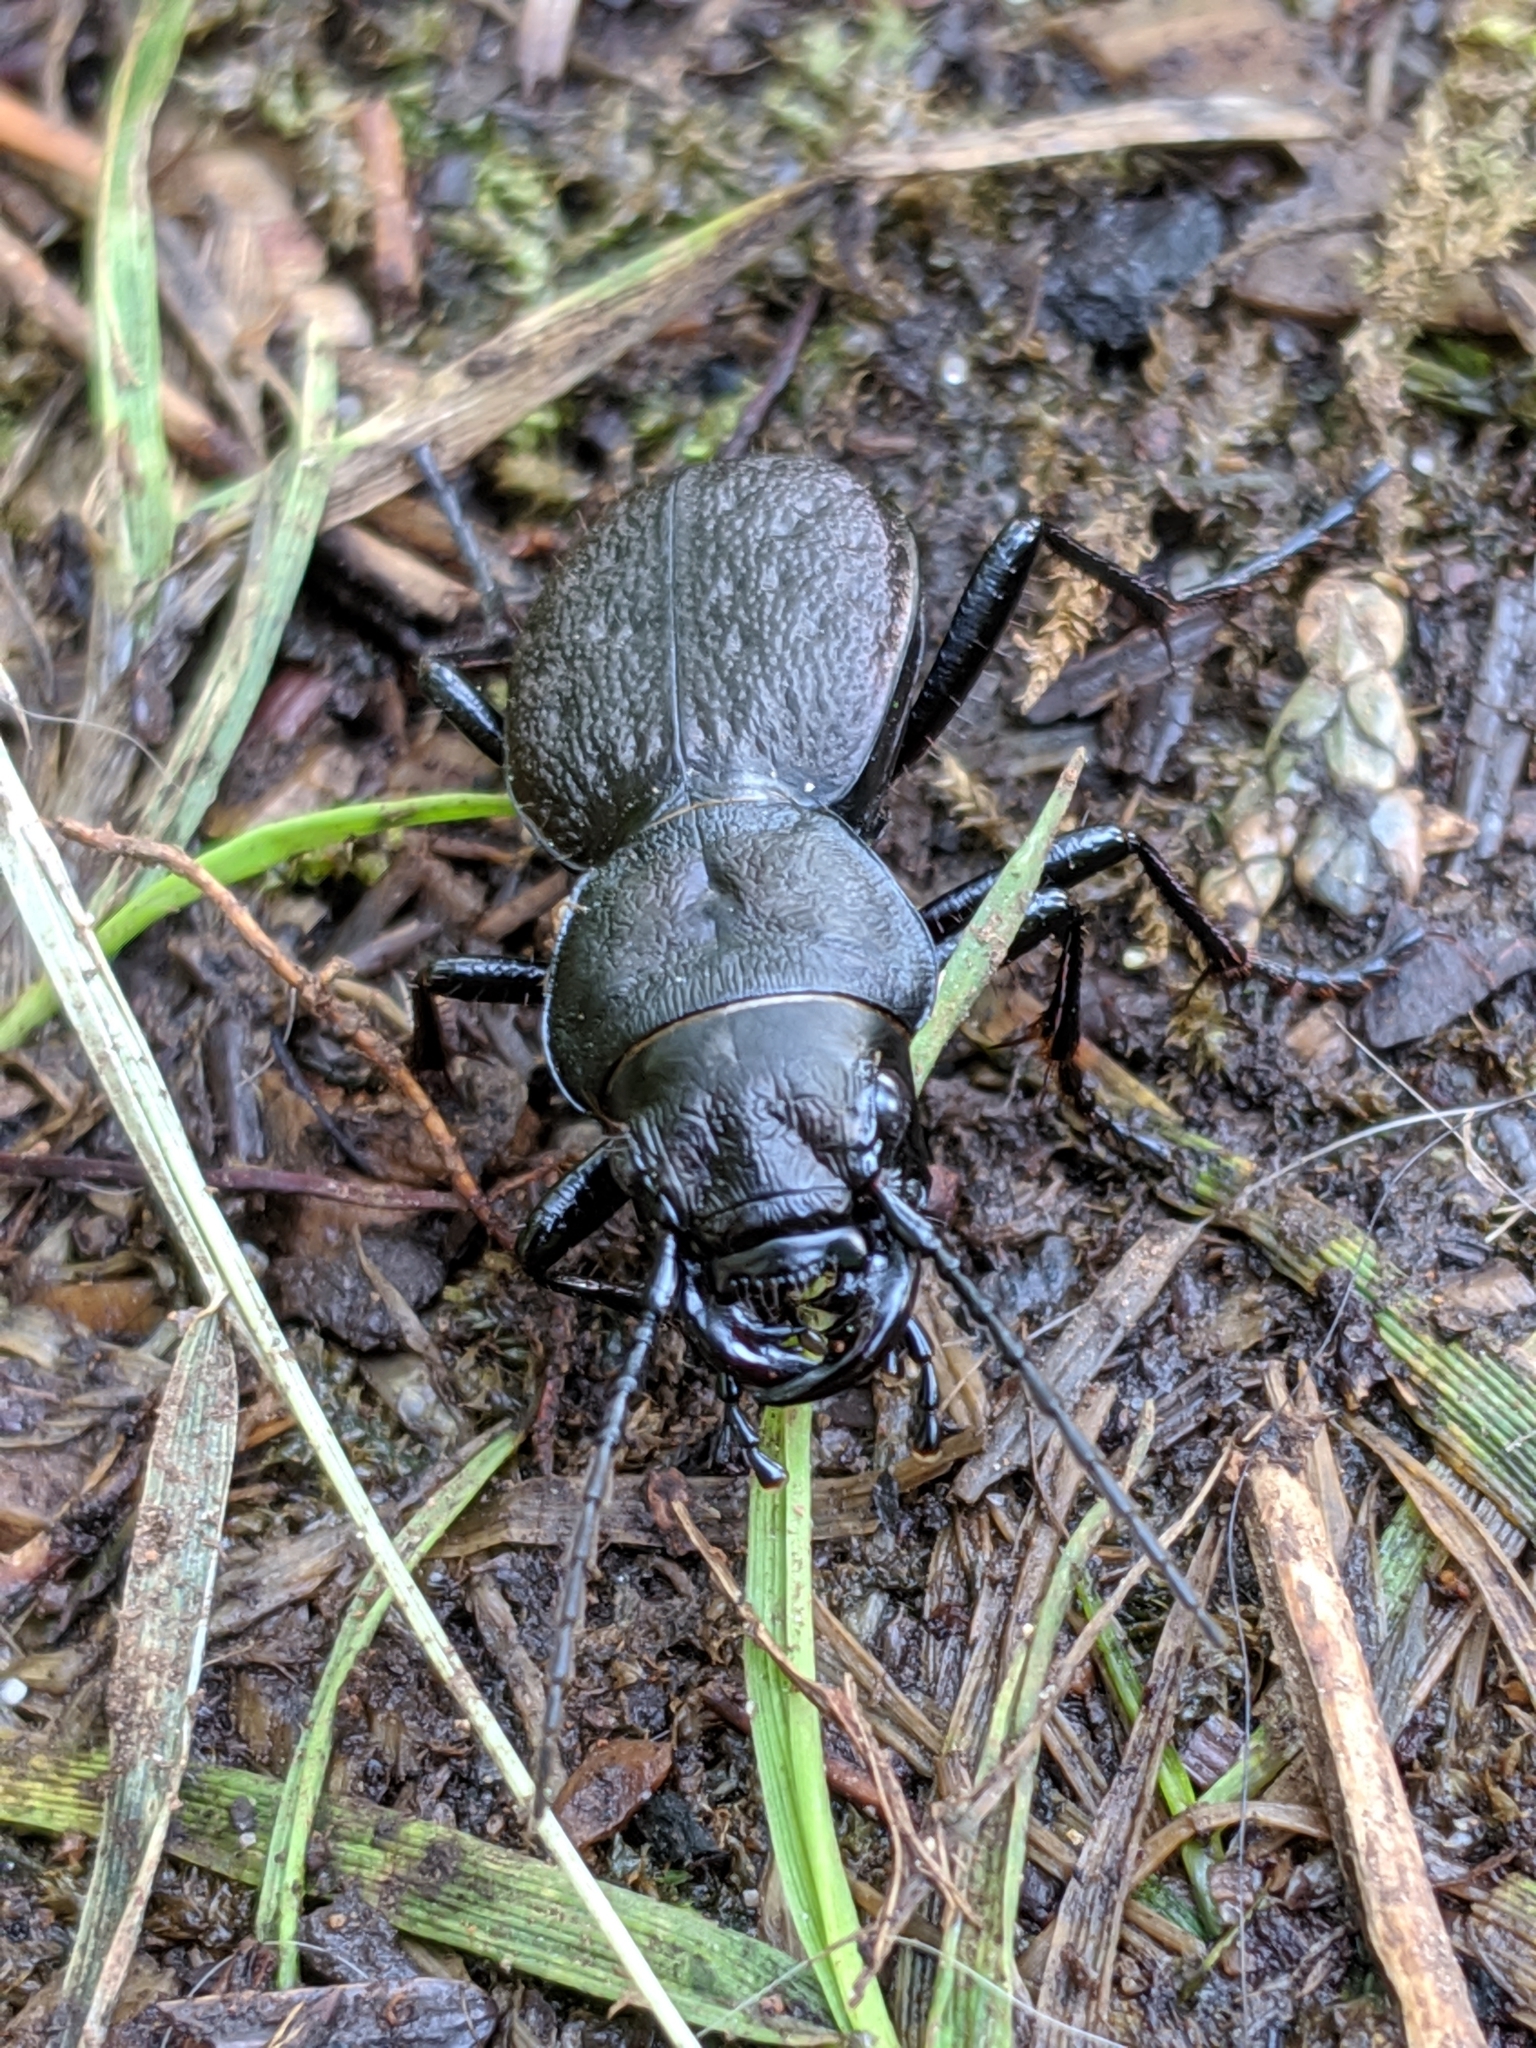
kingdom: Animalia
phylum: Arthropoda
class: Insecta
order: Coleoptera
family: Carabidae
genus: Omus
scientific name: Omus dejeanii
